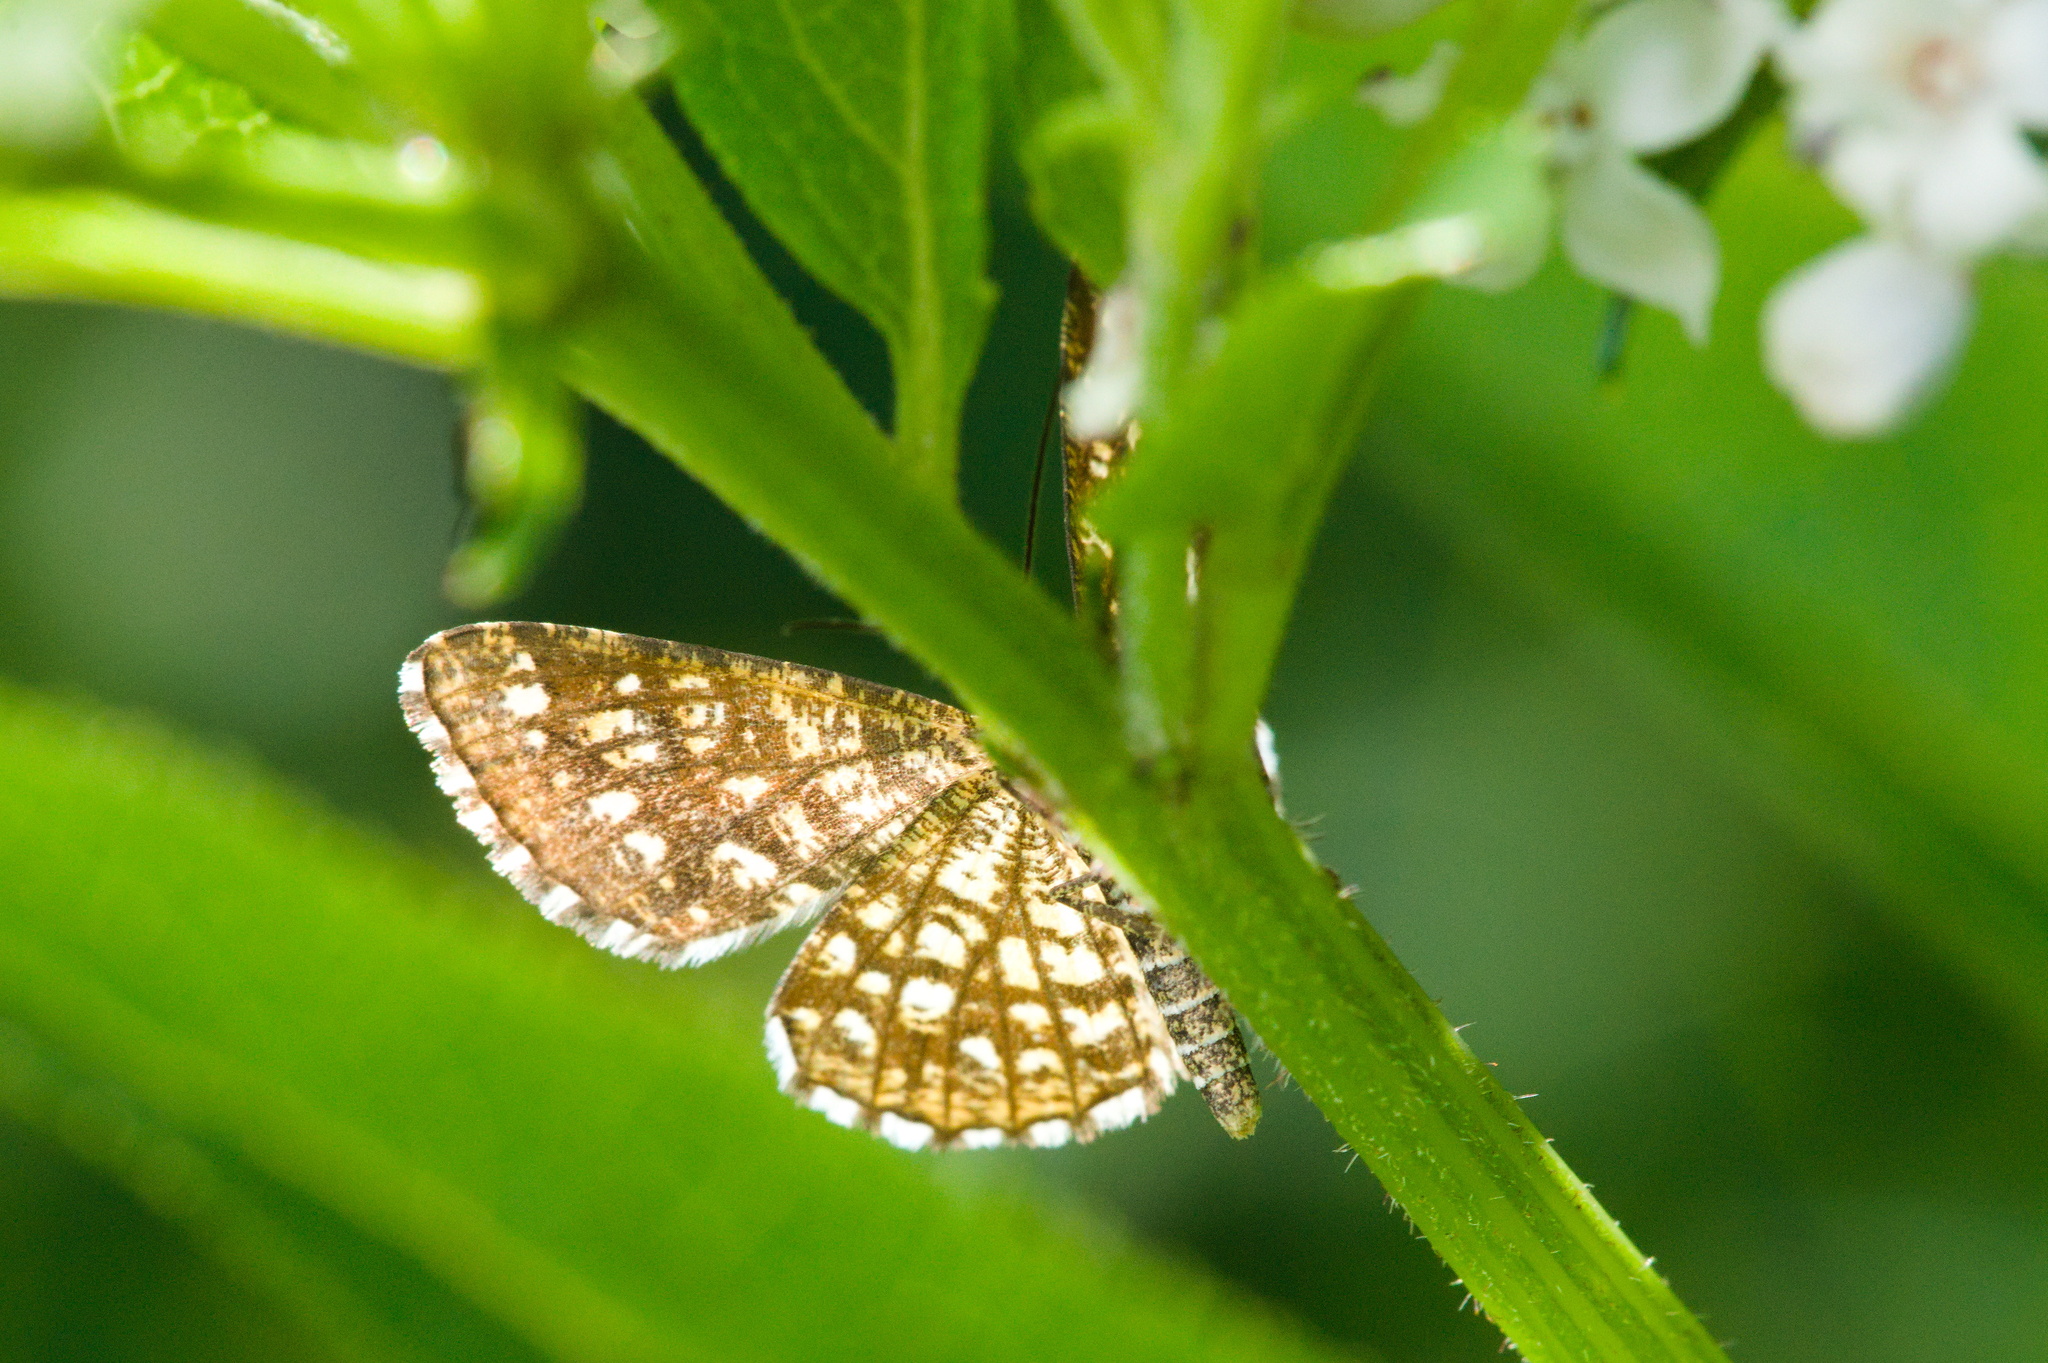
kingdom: Animalia
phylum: Arthropoda
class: Insecta
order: Lepidoptera
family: Geometridae
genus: Chiasmia
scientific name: Chiasmia clathrata
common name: Latticed heath
